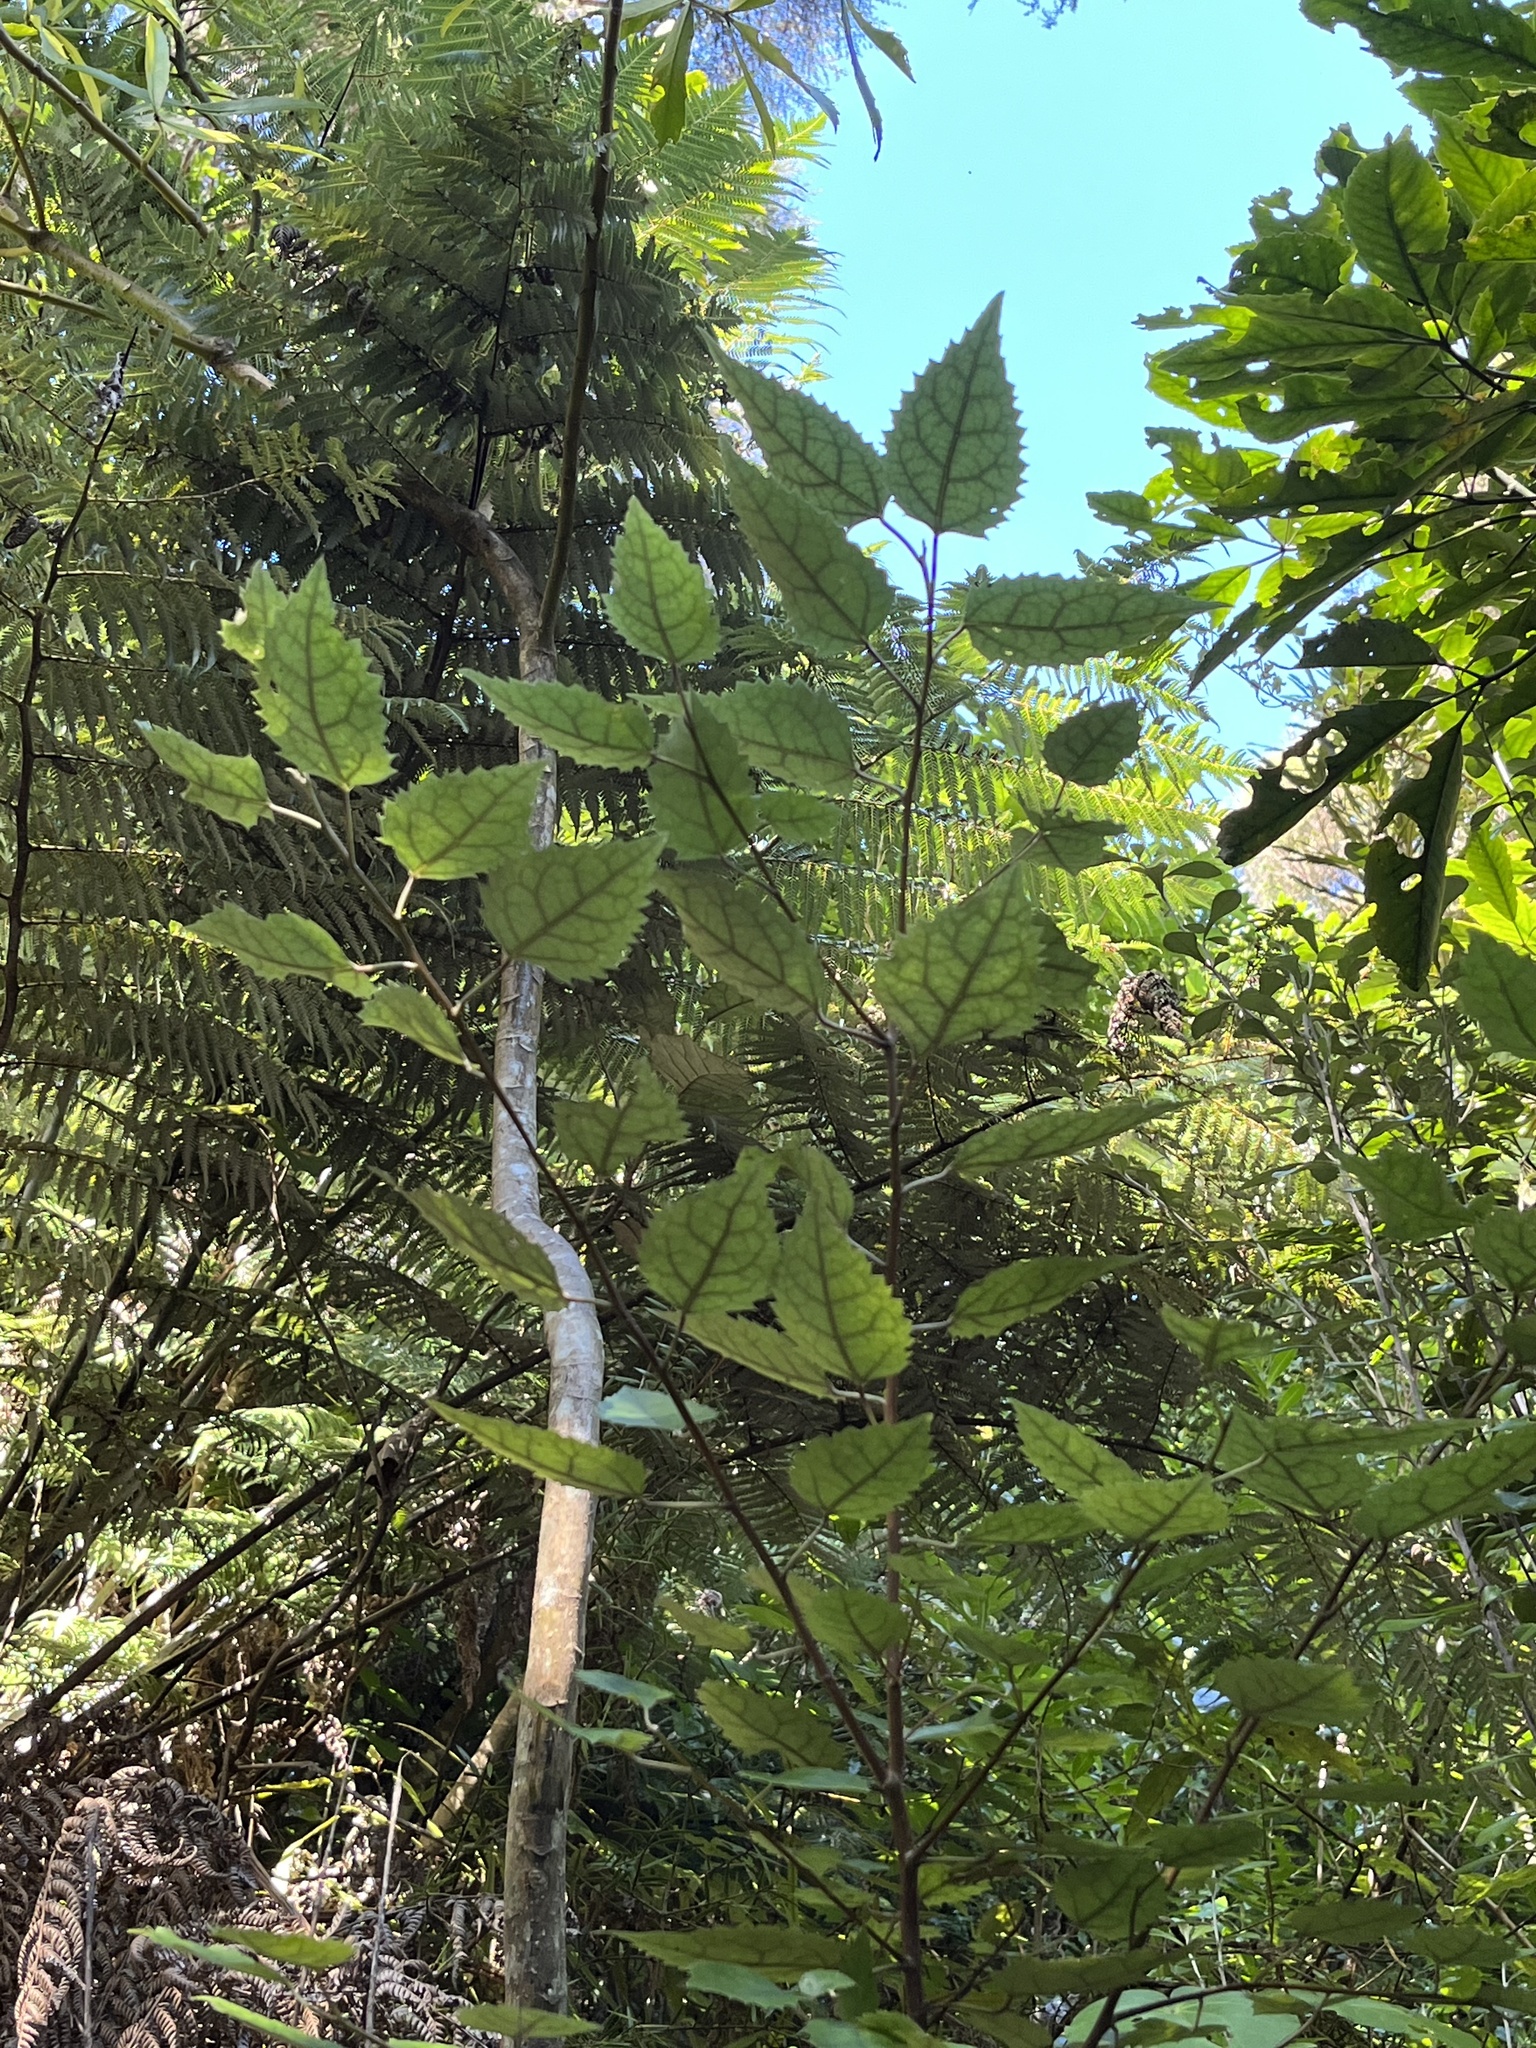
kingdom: Plantae
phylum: Tracheophyta
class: Magnoliopsida
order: Malvales
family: Malvaceae
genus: Hoheria
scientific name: Hoheria populnea
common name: Lacebark
